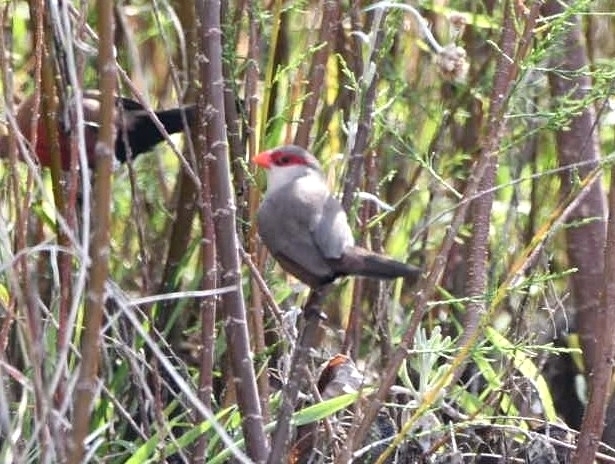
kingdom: Animalia
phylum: Chordata
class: Aves
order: Passeriformes
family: Estrildidae
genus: Estrilda
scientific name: Estrilda astrild
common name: Common waxbill
